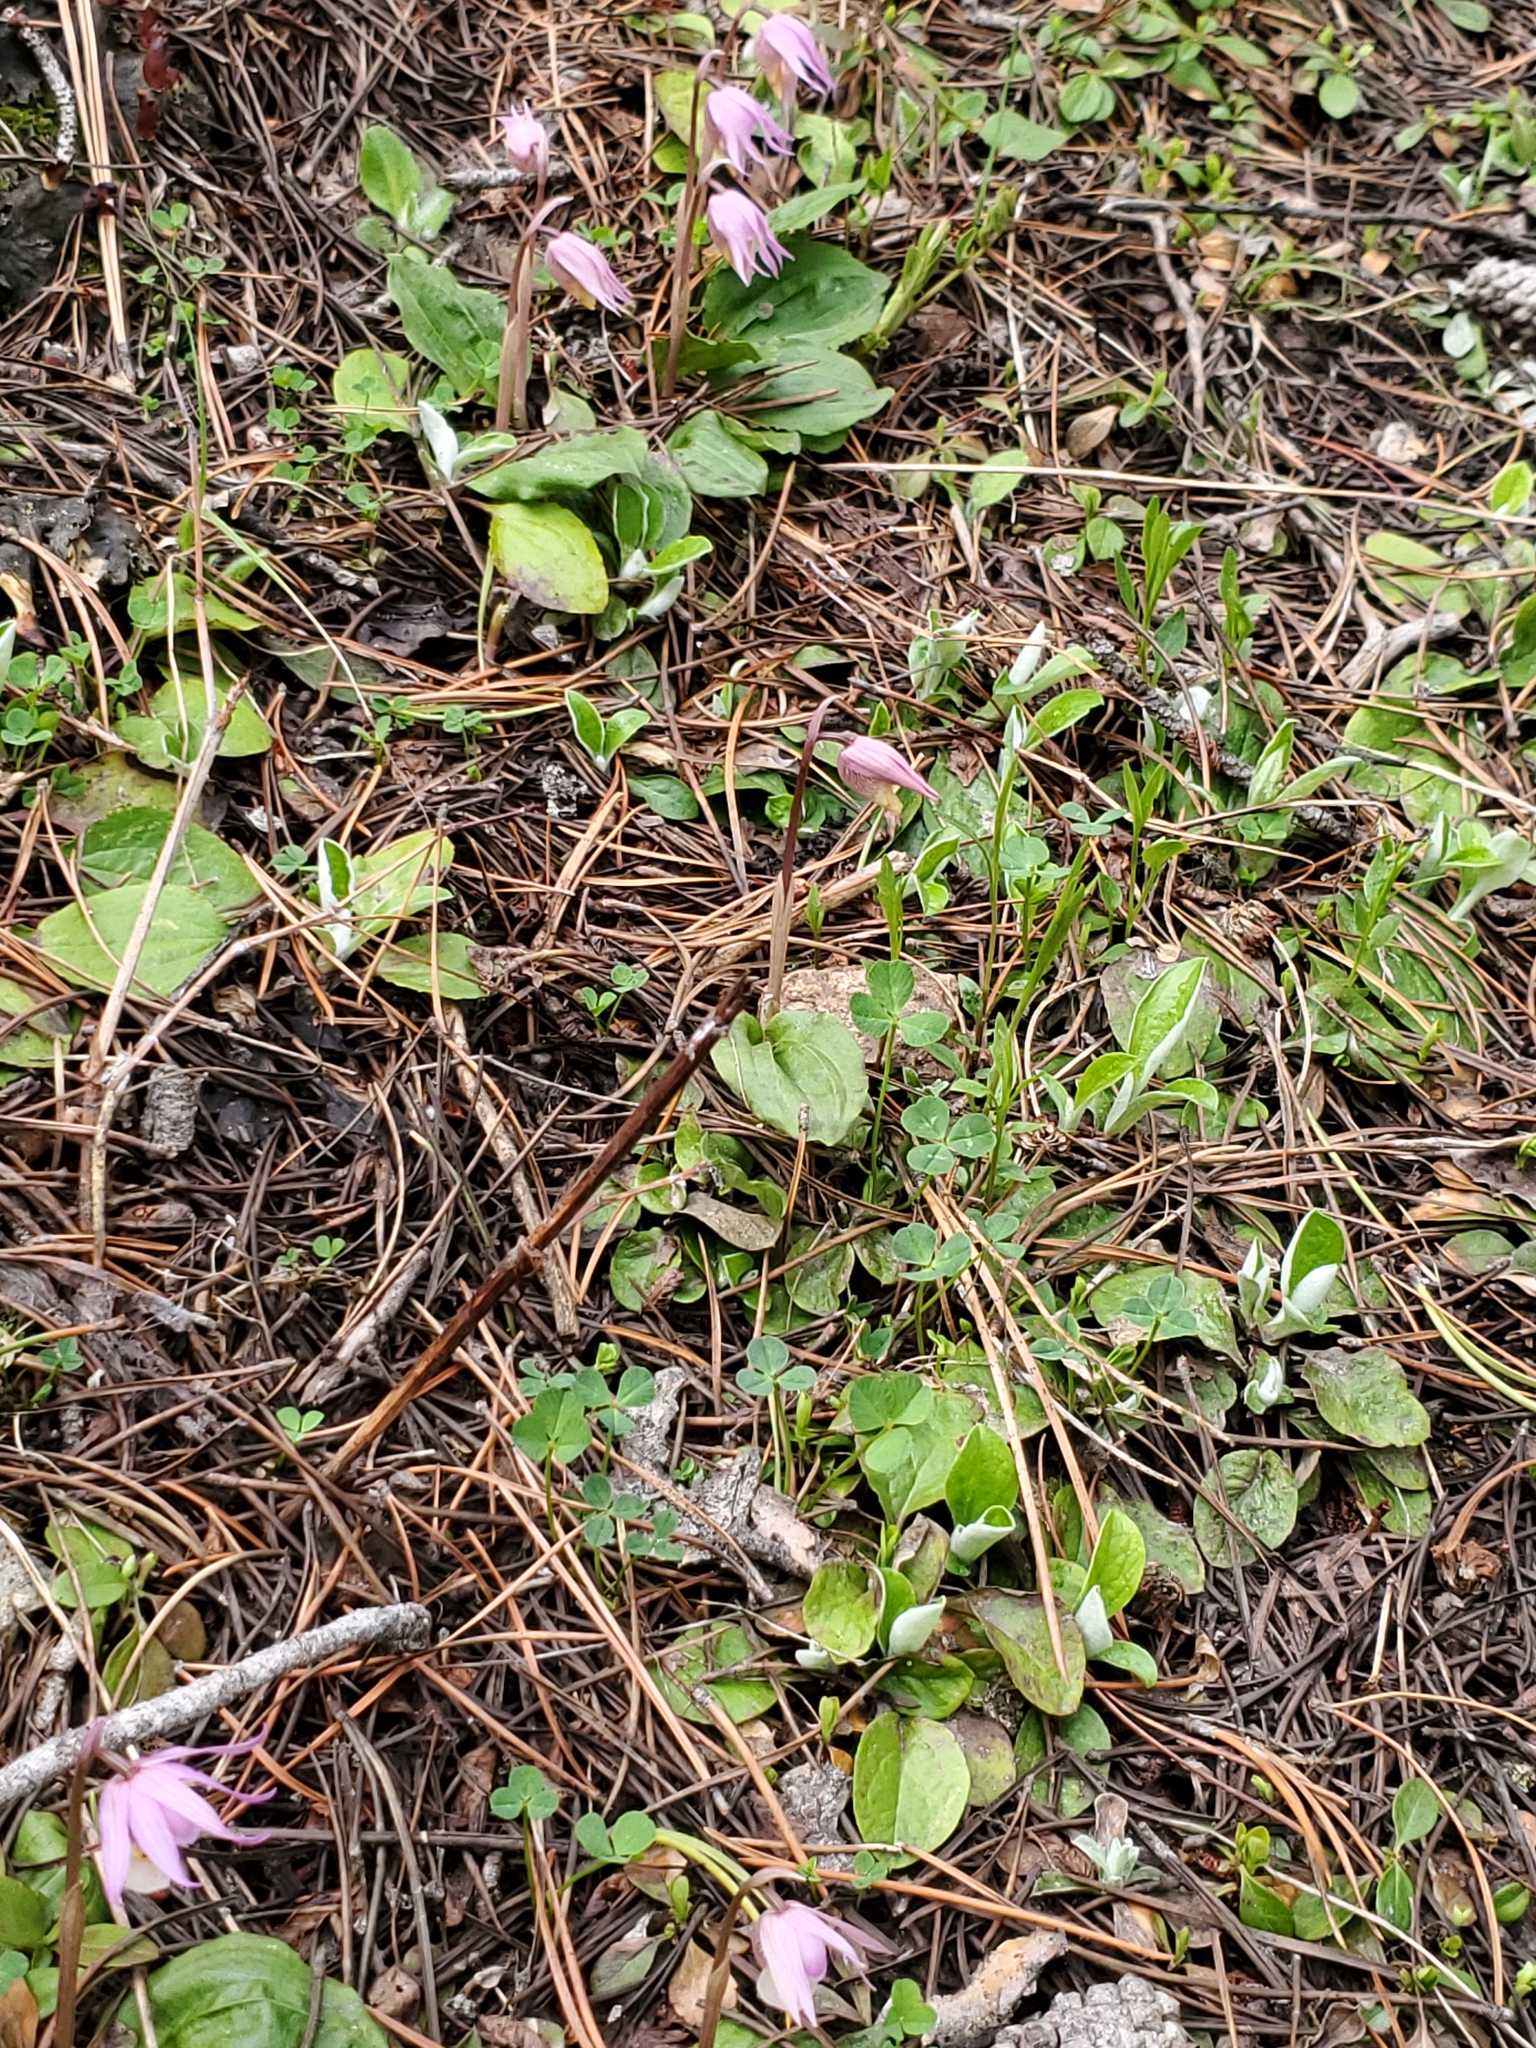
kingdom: Plantae
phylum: Tracheophyta
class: Liliopsida
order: Asparagales
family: Orchidaceae
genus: Calypso
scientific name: Calypso bulbosa
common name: Calypso
